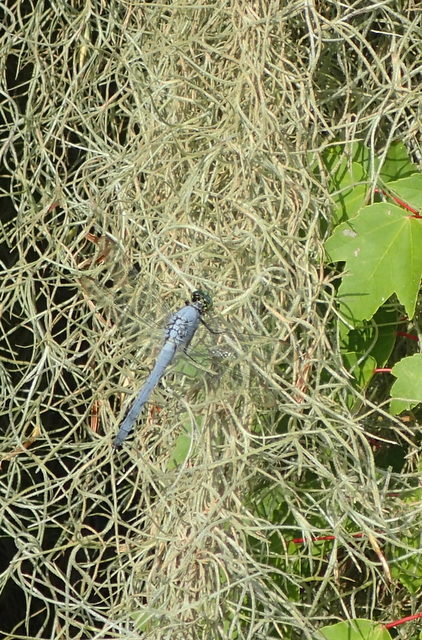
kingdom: Animalia
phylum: Arthropoda
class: Insecta
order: Odonata
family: Libellulidae
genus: Erythemis
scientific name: Erythemis simplicicollis
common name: Eastern pondhawk
